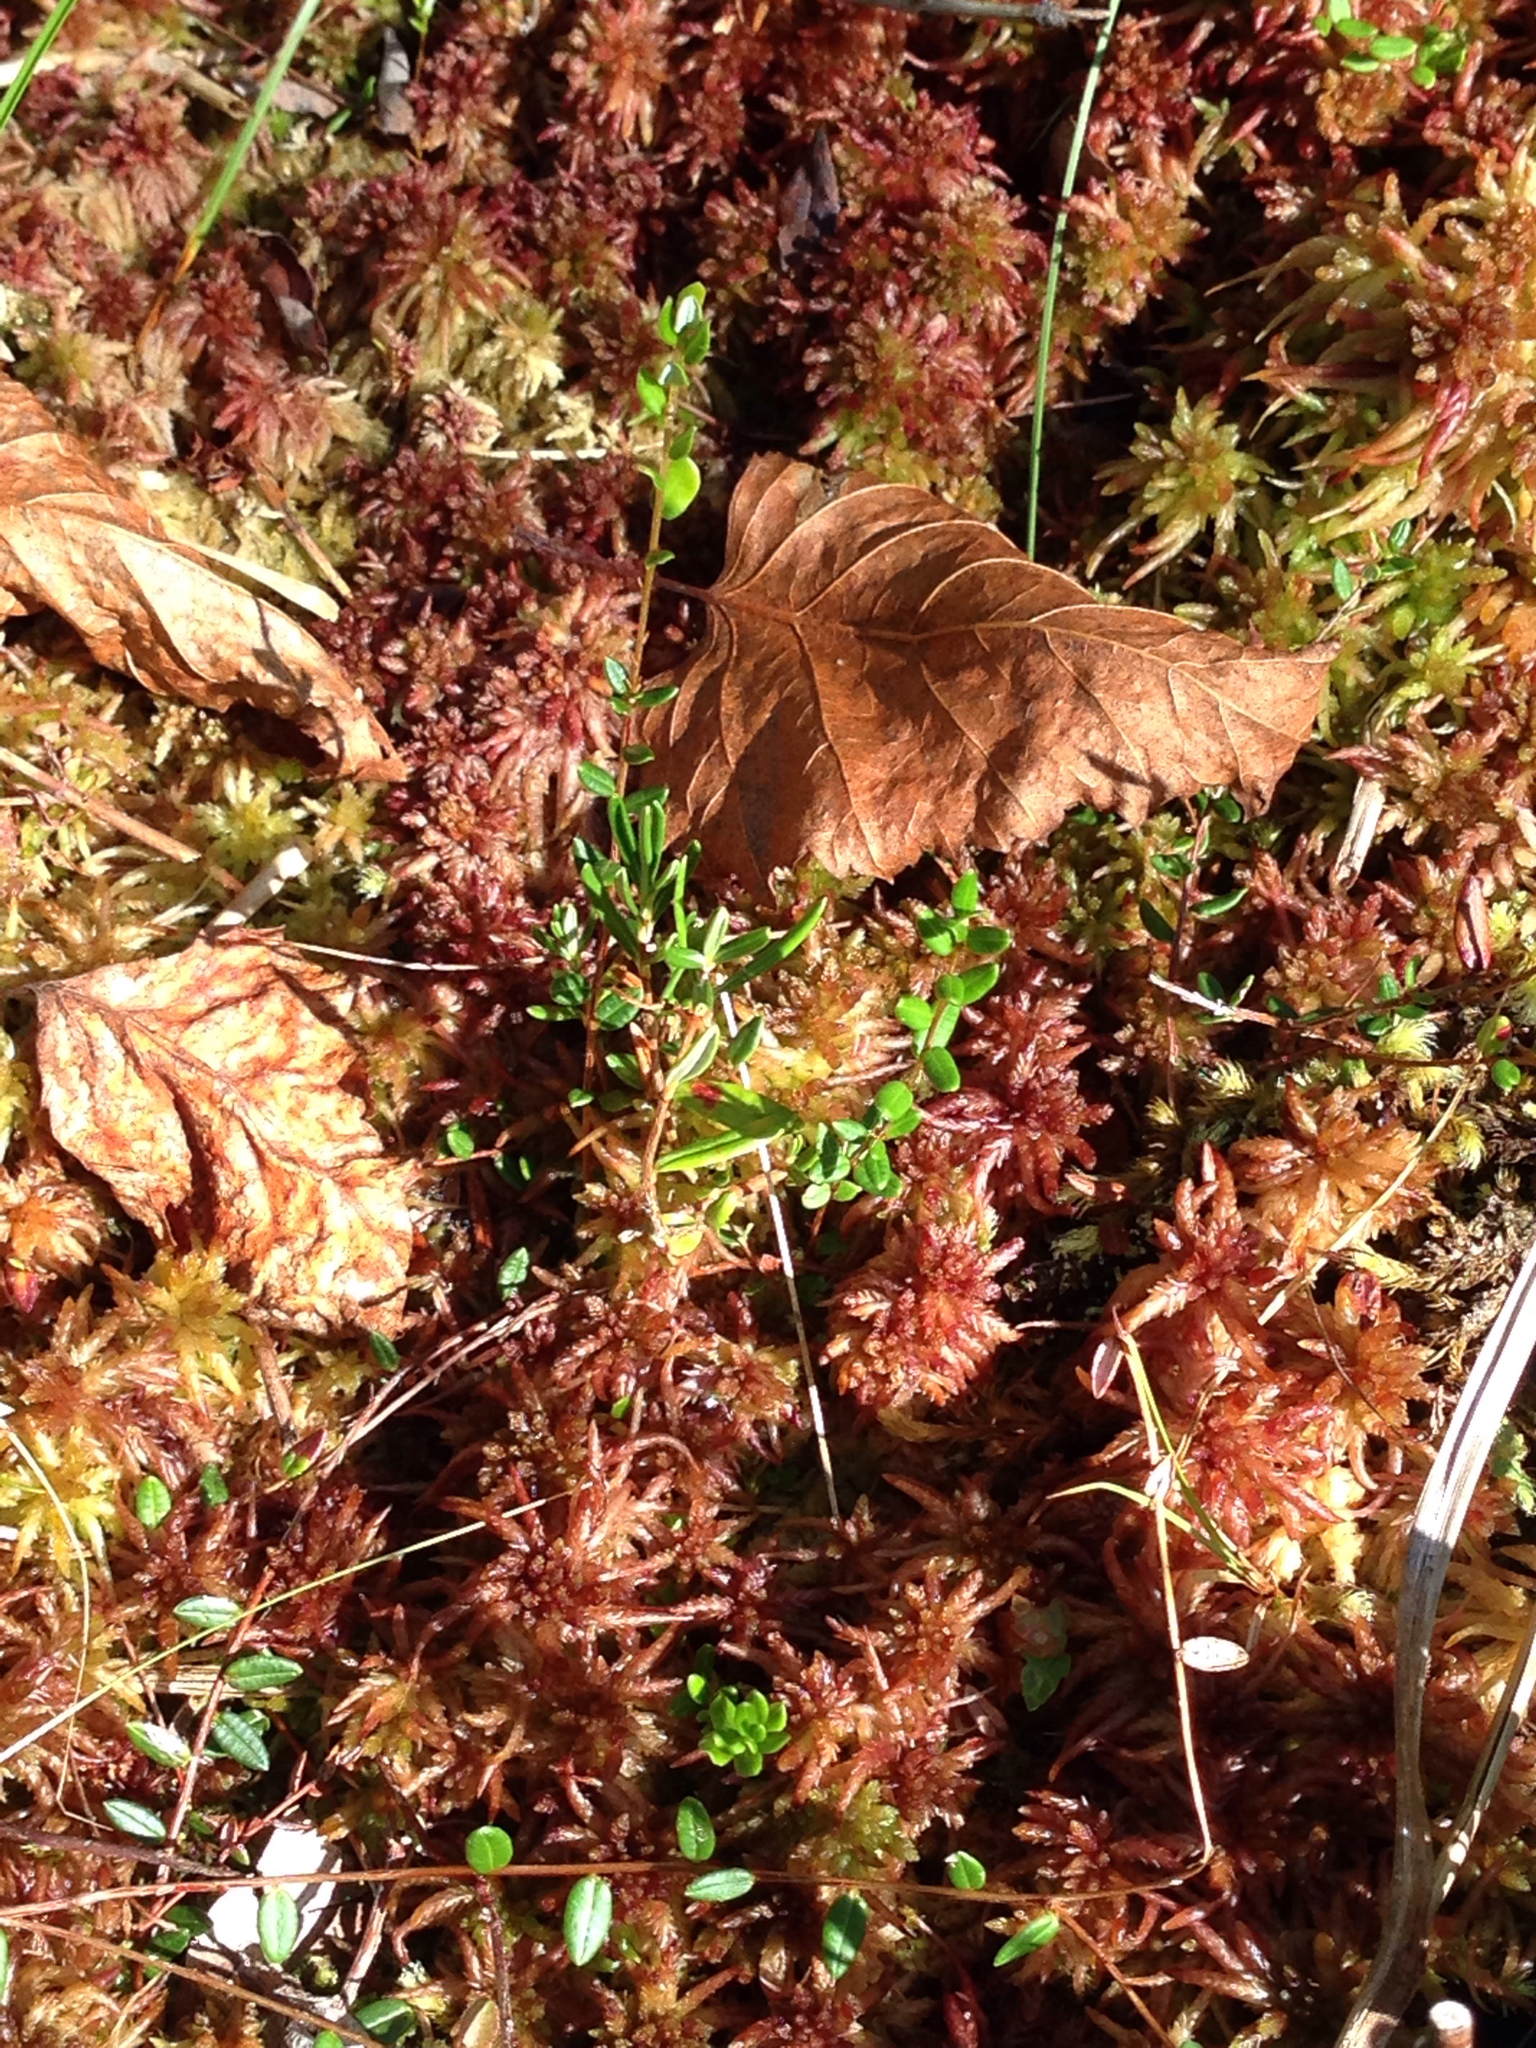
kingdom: Plantae
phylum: Tracheophyta
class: Magnoliopsida
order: Ericales
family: Ericaceae
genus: Vaccinium
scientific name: Vaccinium oxycoccos
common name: Cranberry
